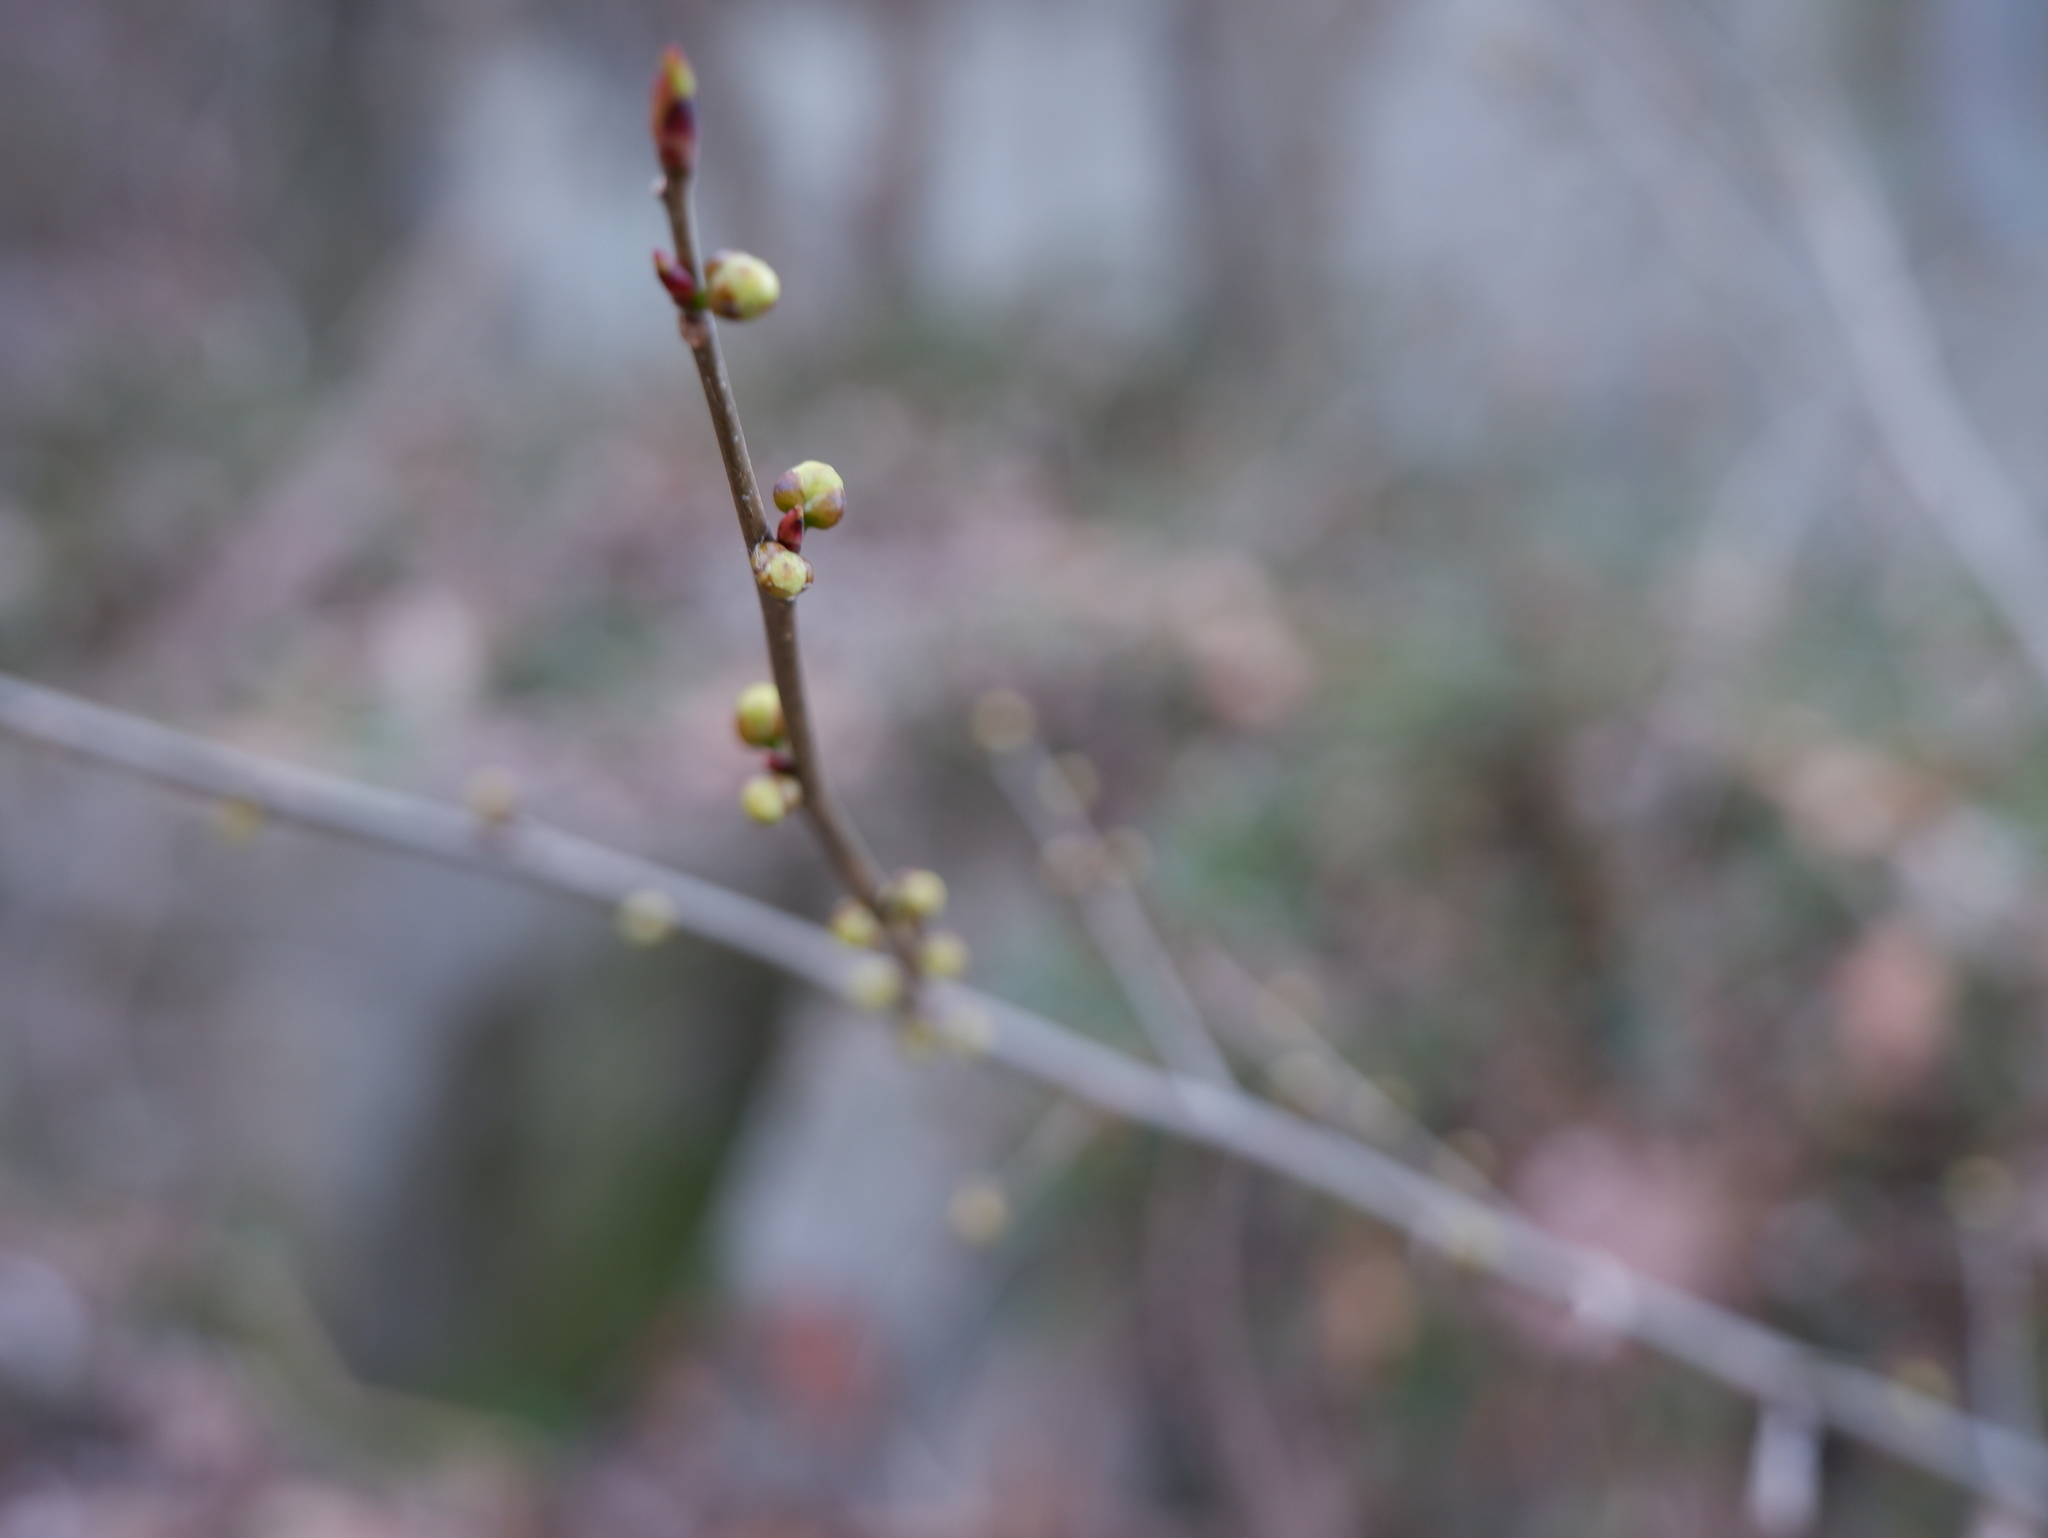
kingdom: Plantae
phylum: Tracheophyta
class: Magnoliopsida
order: Laurales
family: Lauraceae
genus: Lindera
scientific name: Lindera benzoin
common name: Spicebush
